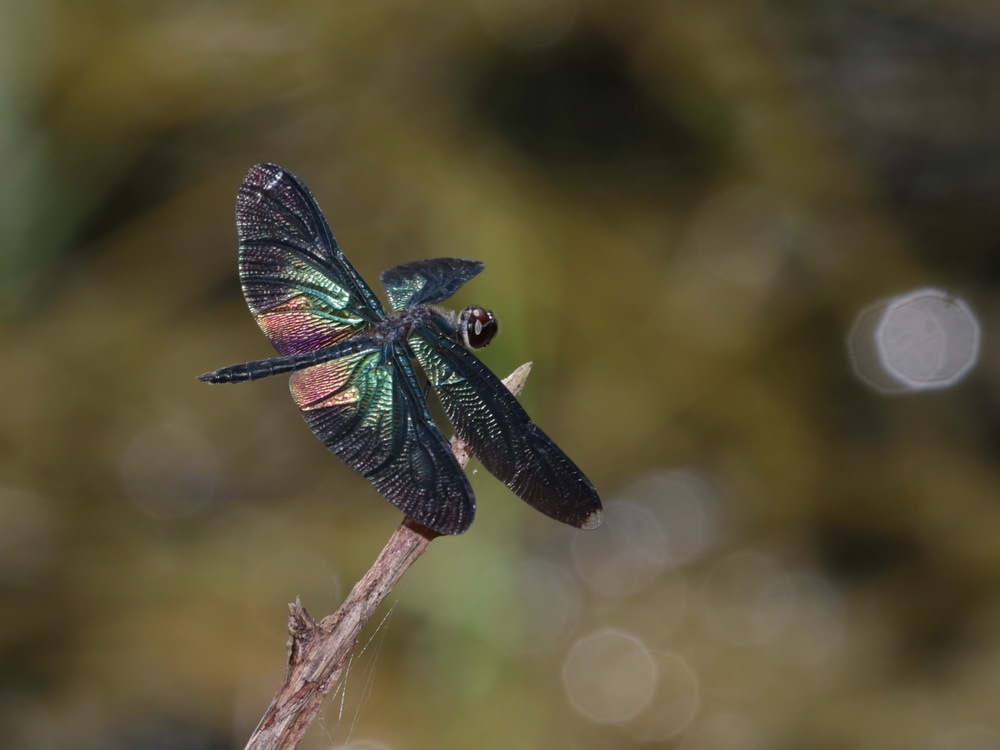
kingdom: Animalia
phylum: Arthropoda
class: Insecta
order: Odonata
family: Libellulidae
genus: Rhyothemis
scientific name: Rhyothemis plutonia
